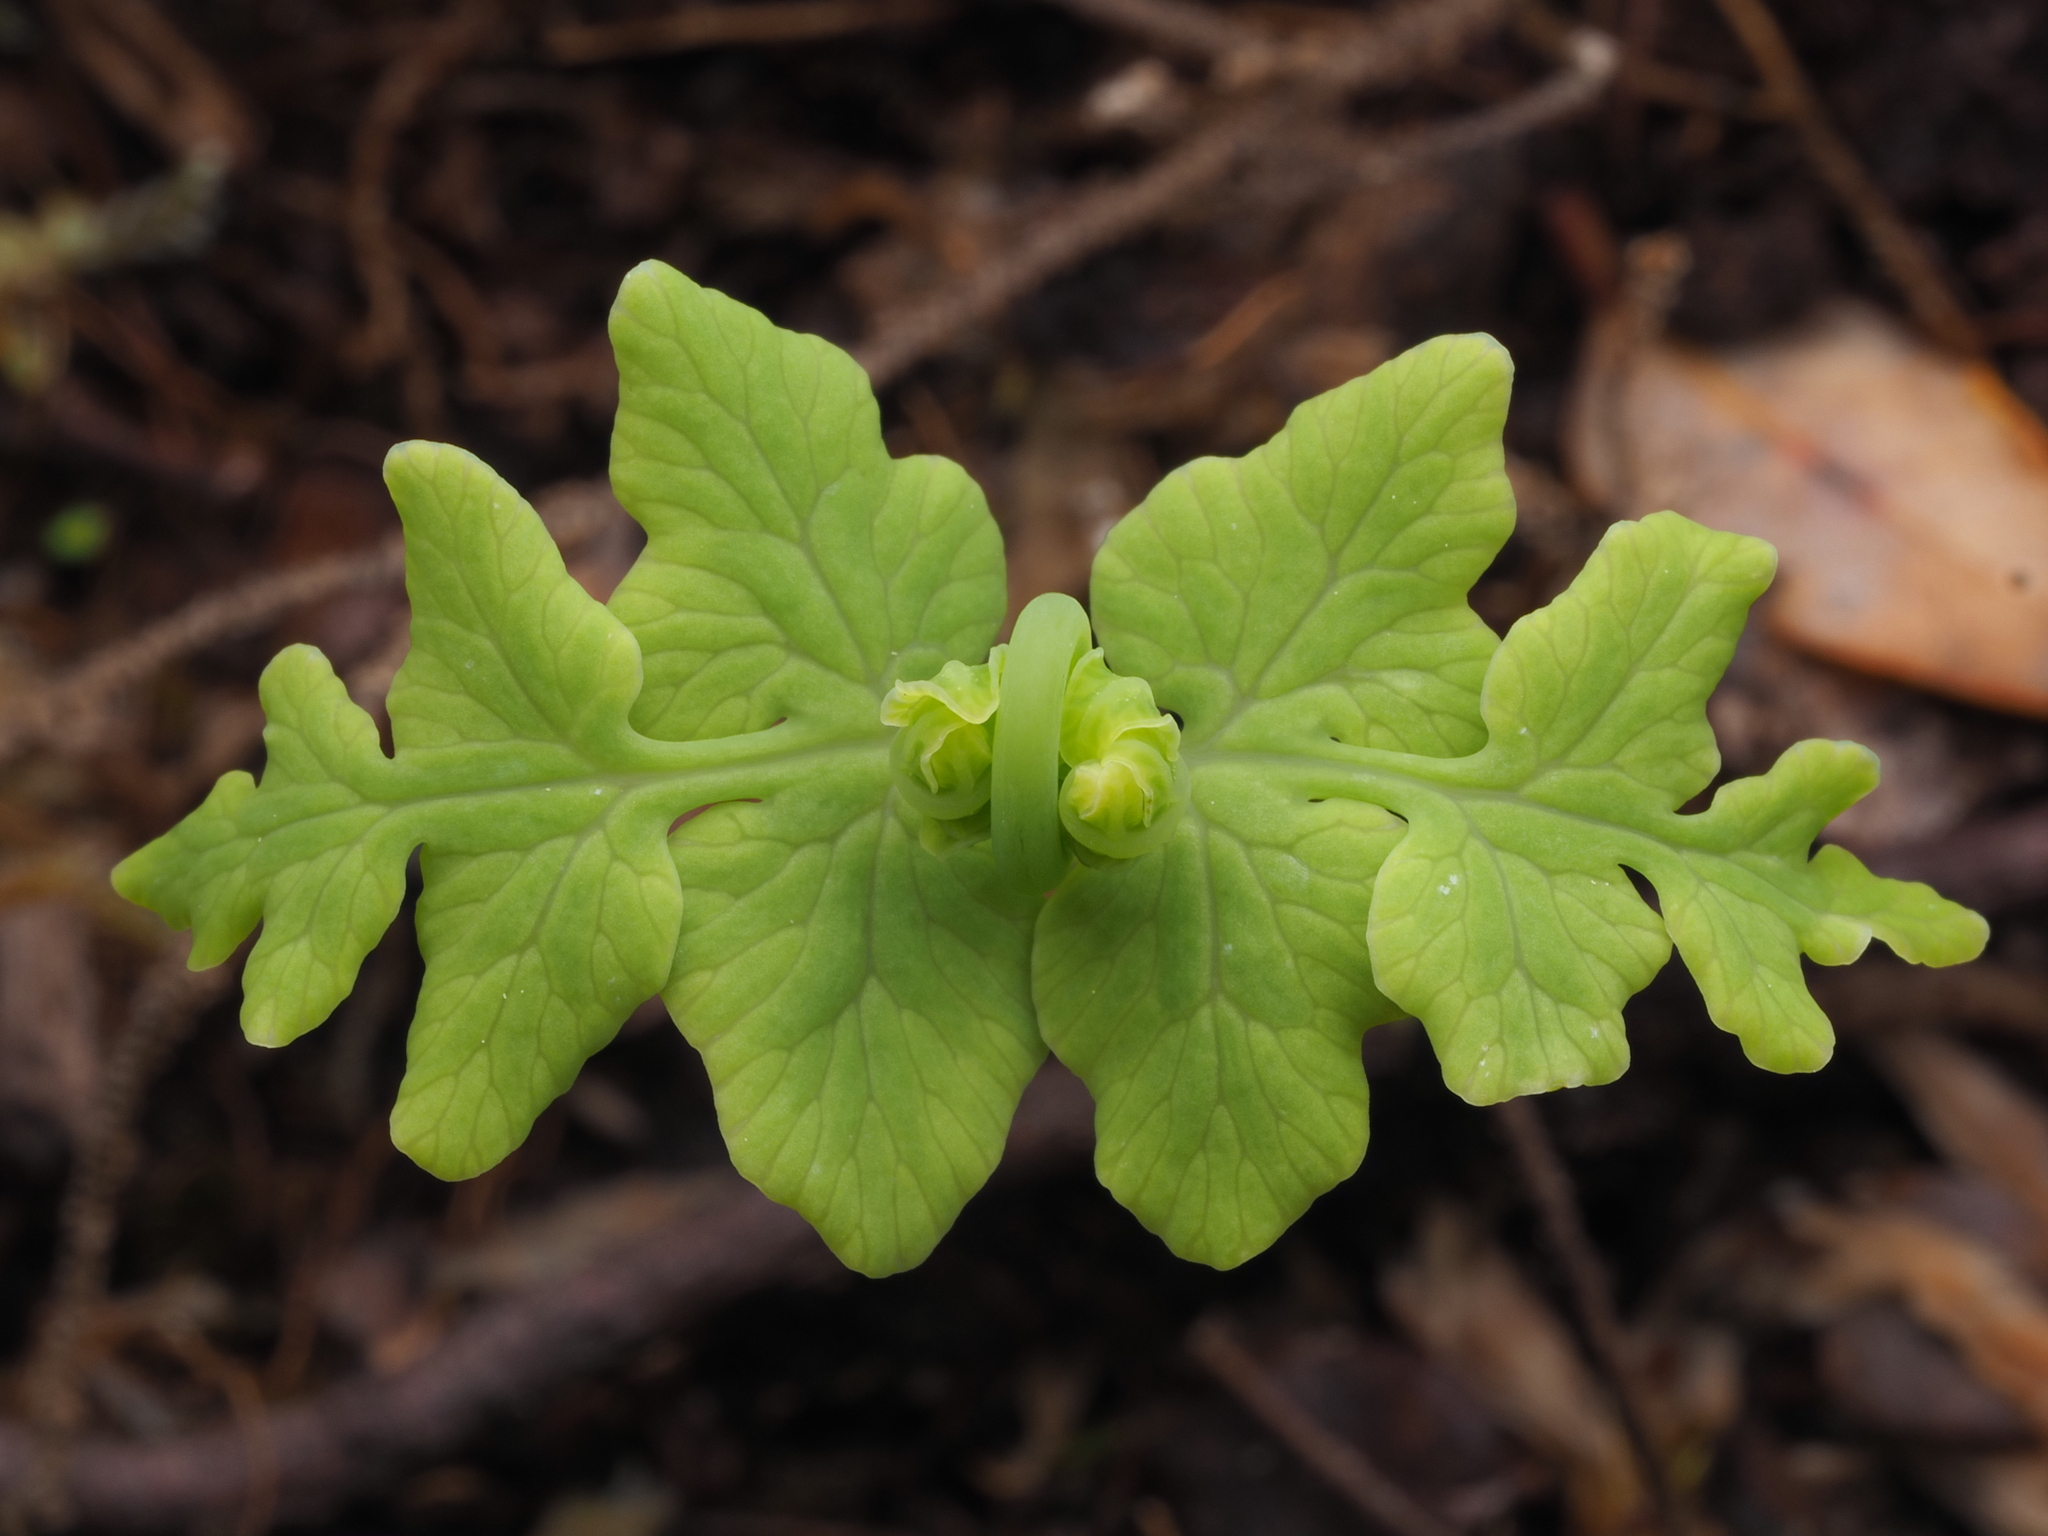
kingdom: Plantae
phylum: Tracheophyta
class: Polypodiopsida
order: Polypodiales
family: Dennstaedtiaceae
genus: Histiopteris
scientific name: Histiopteris incisa
